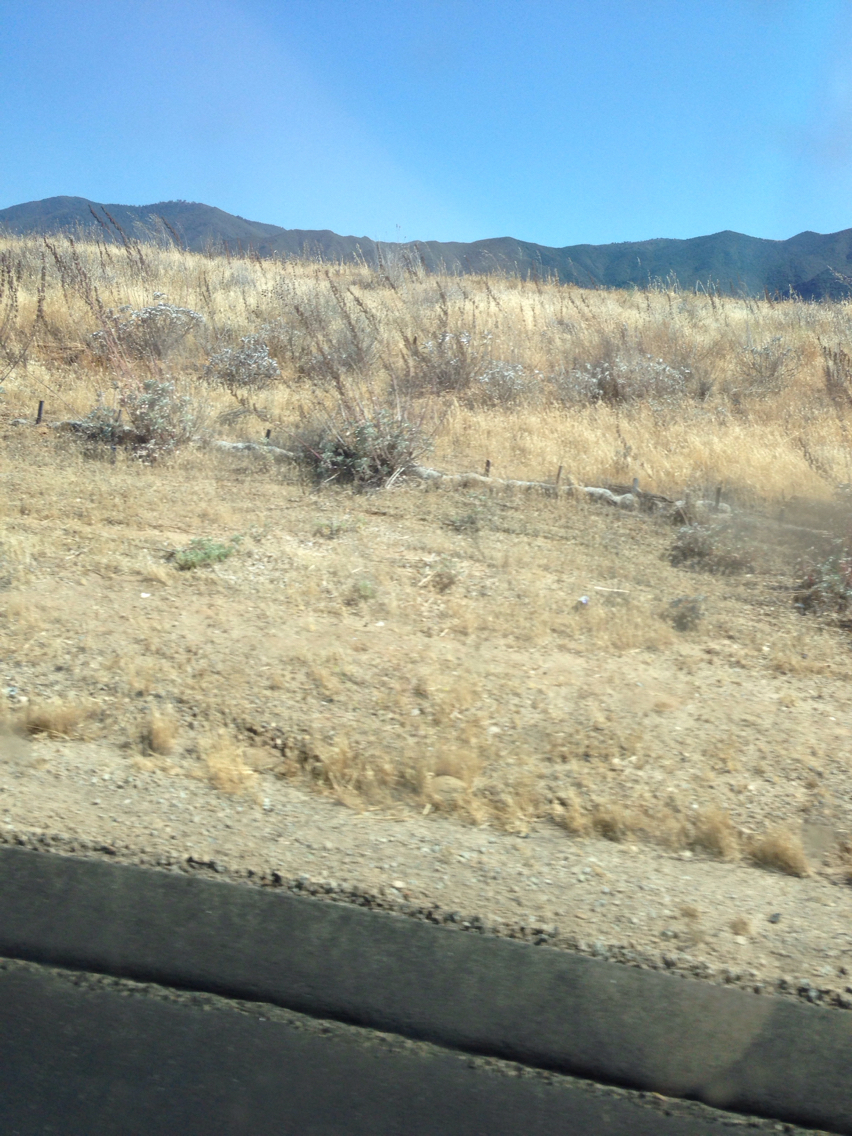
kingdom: Plantae
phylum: Tracheophyta
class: Magnoliopsida
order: Lamiales
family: Lamiaceae
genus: Salvia
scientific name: Salvia apiana
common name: White sage
